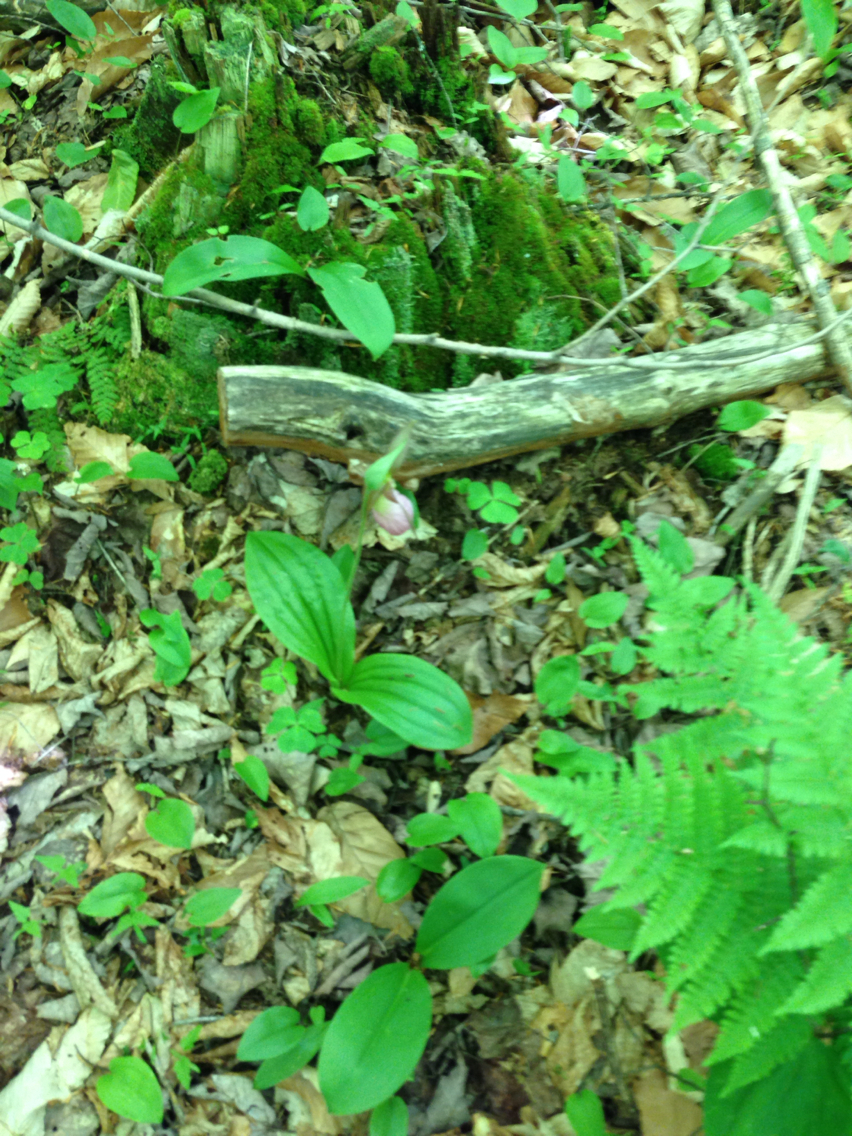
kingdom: Plantae
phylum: Tracheophyta
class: Liliopsida
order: Asparagales
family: Orchidaceae
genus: Cypripedium
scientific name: Cypripedium acaule
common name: Pink lady's-slipper
